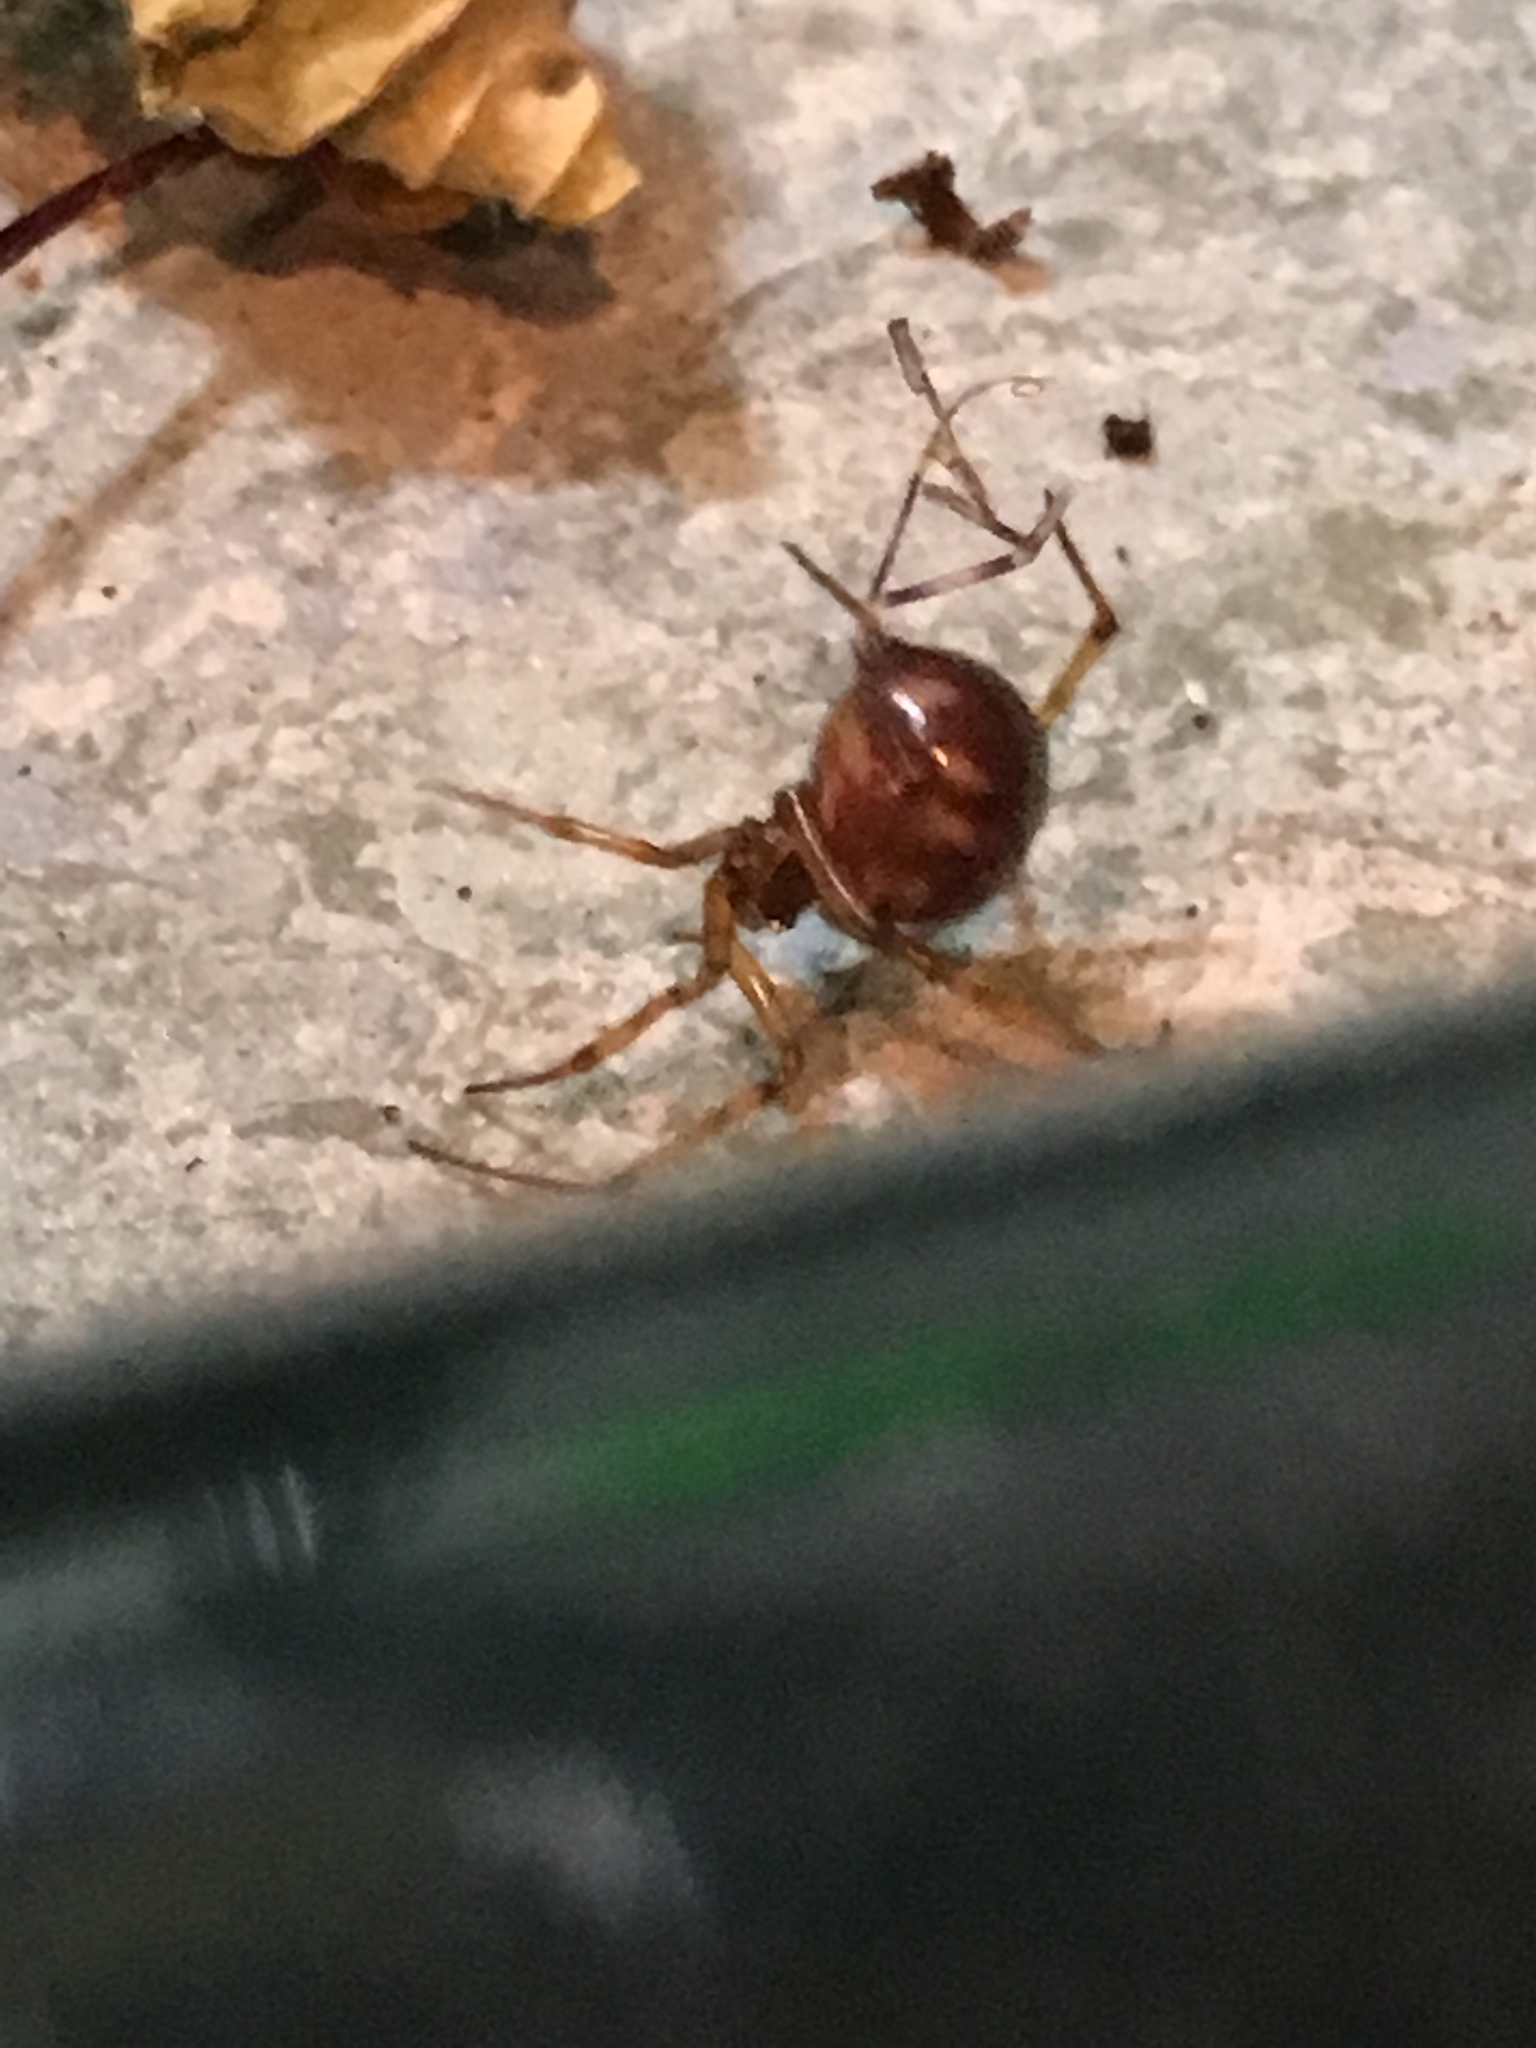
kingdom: Animalia
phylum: Arthropoda
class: Arachnida
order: Araneae
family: Theridiidae
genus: Steatoda
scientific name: Steatoda triangulosa
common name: Triangulate bud spider
